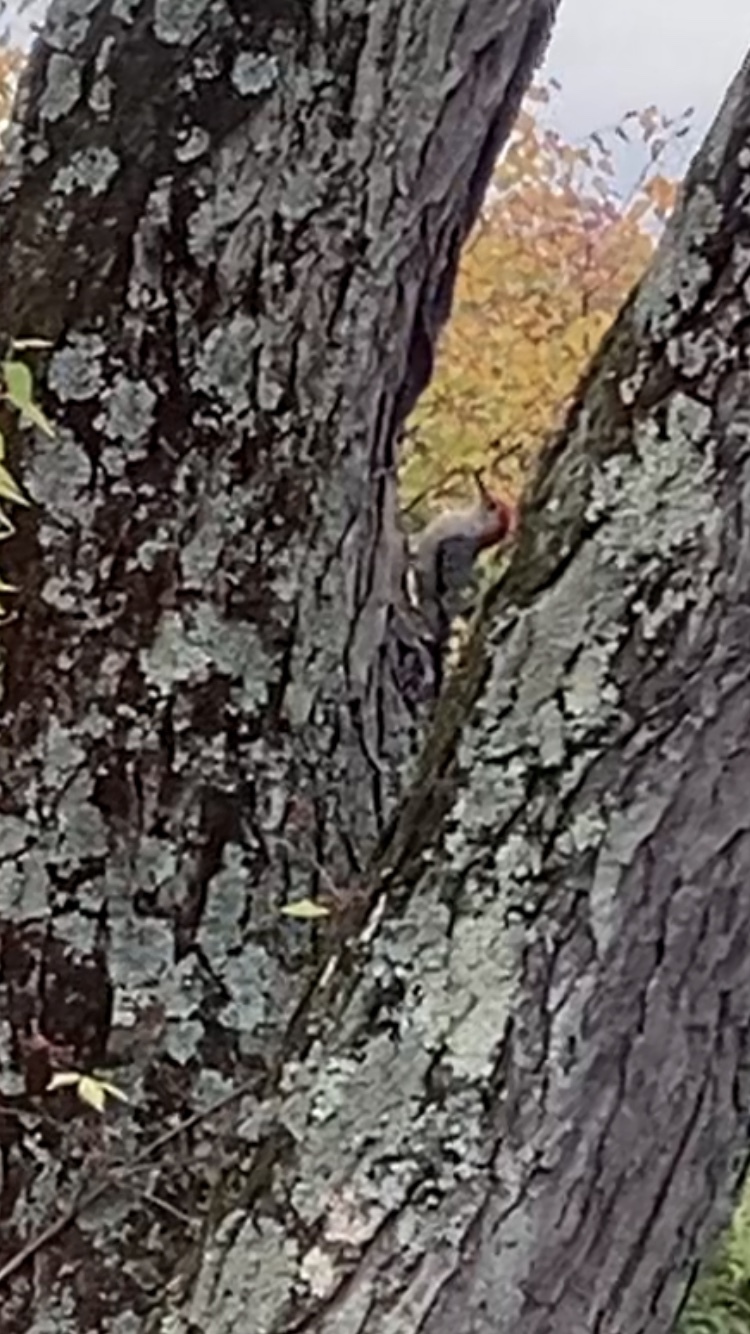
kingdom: Animalia
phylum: Chordata
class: Aves
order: Piciformes
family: Picidae
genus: Melanerpes
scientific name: Melanerpes carolinus
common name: Red-bellied woodpecker
